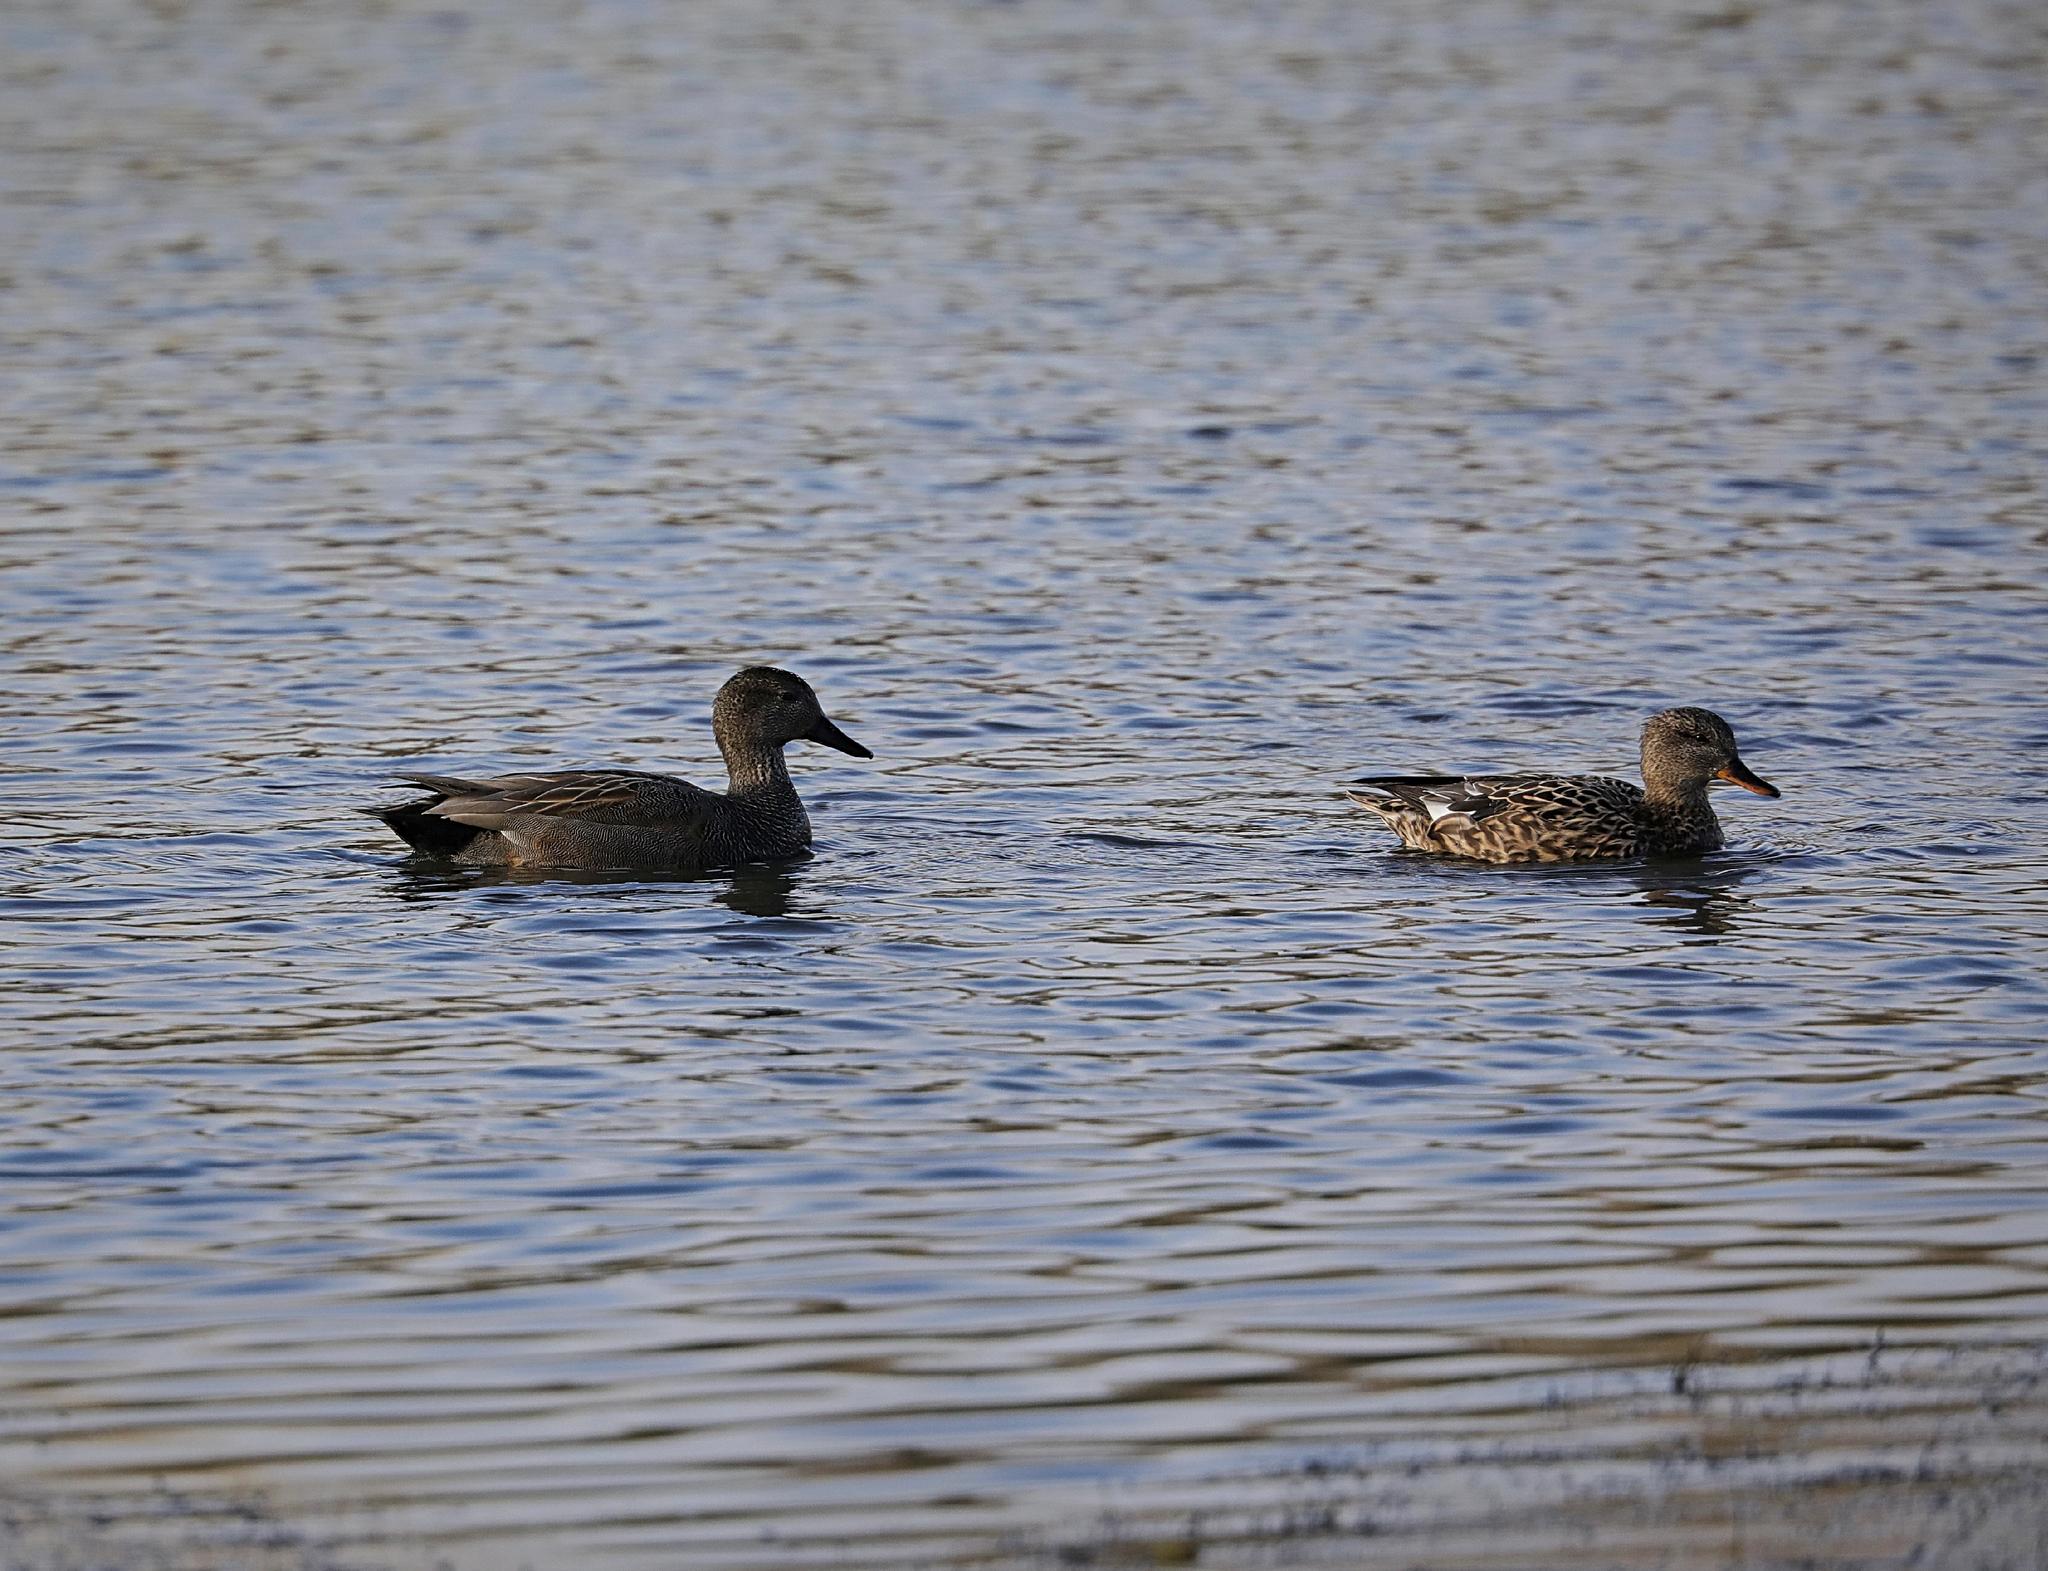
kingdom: Animalia
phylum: Chordata
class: Aves
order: Anseriformes
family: Anatidae
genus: Mareca
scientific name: Mareca strepera
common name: Gadwall
